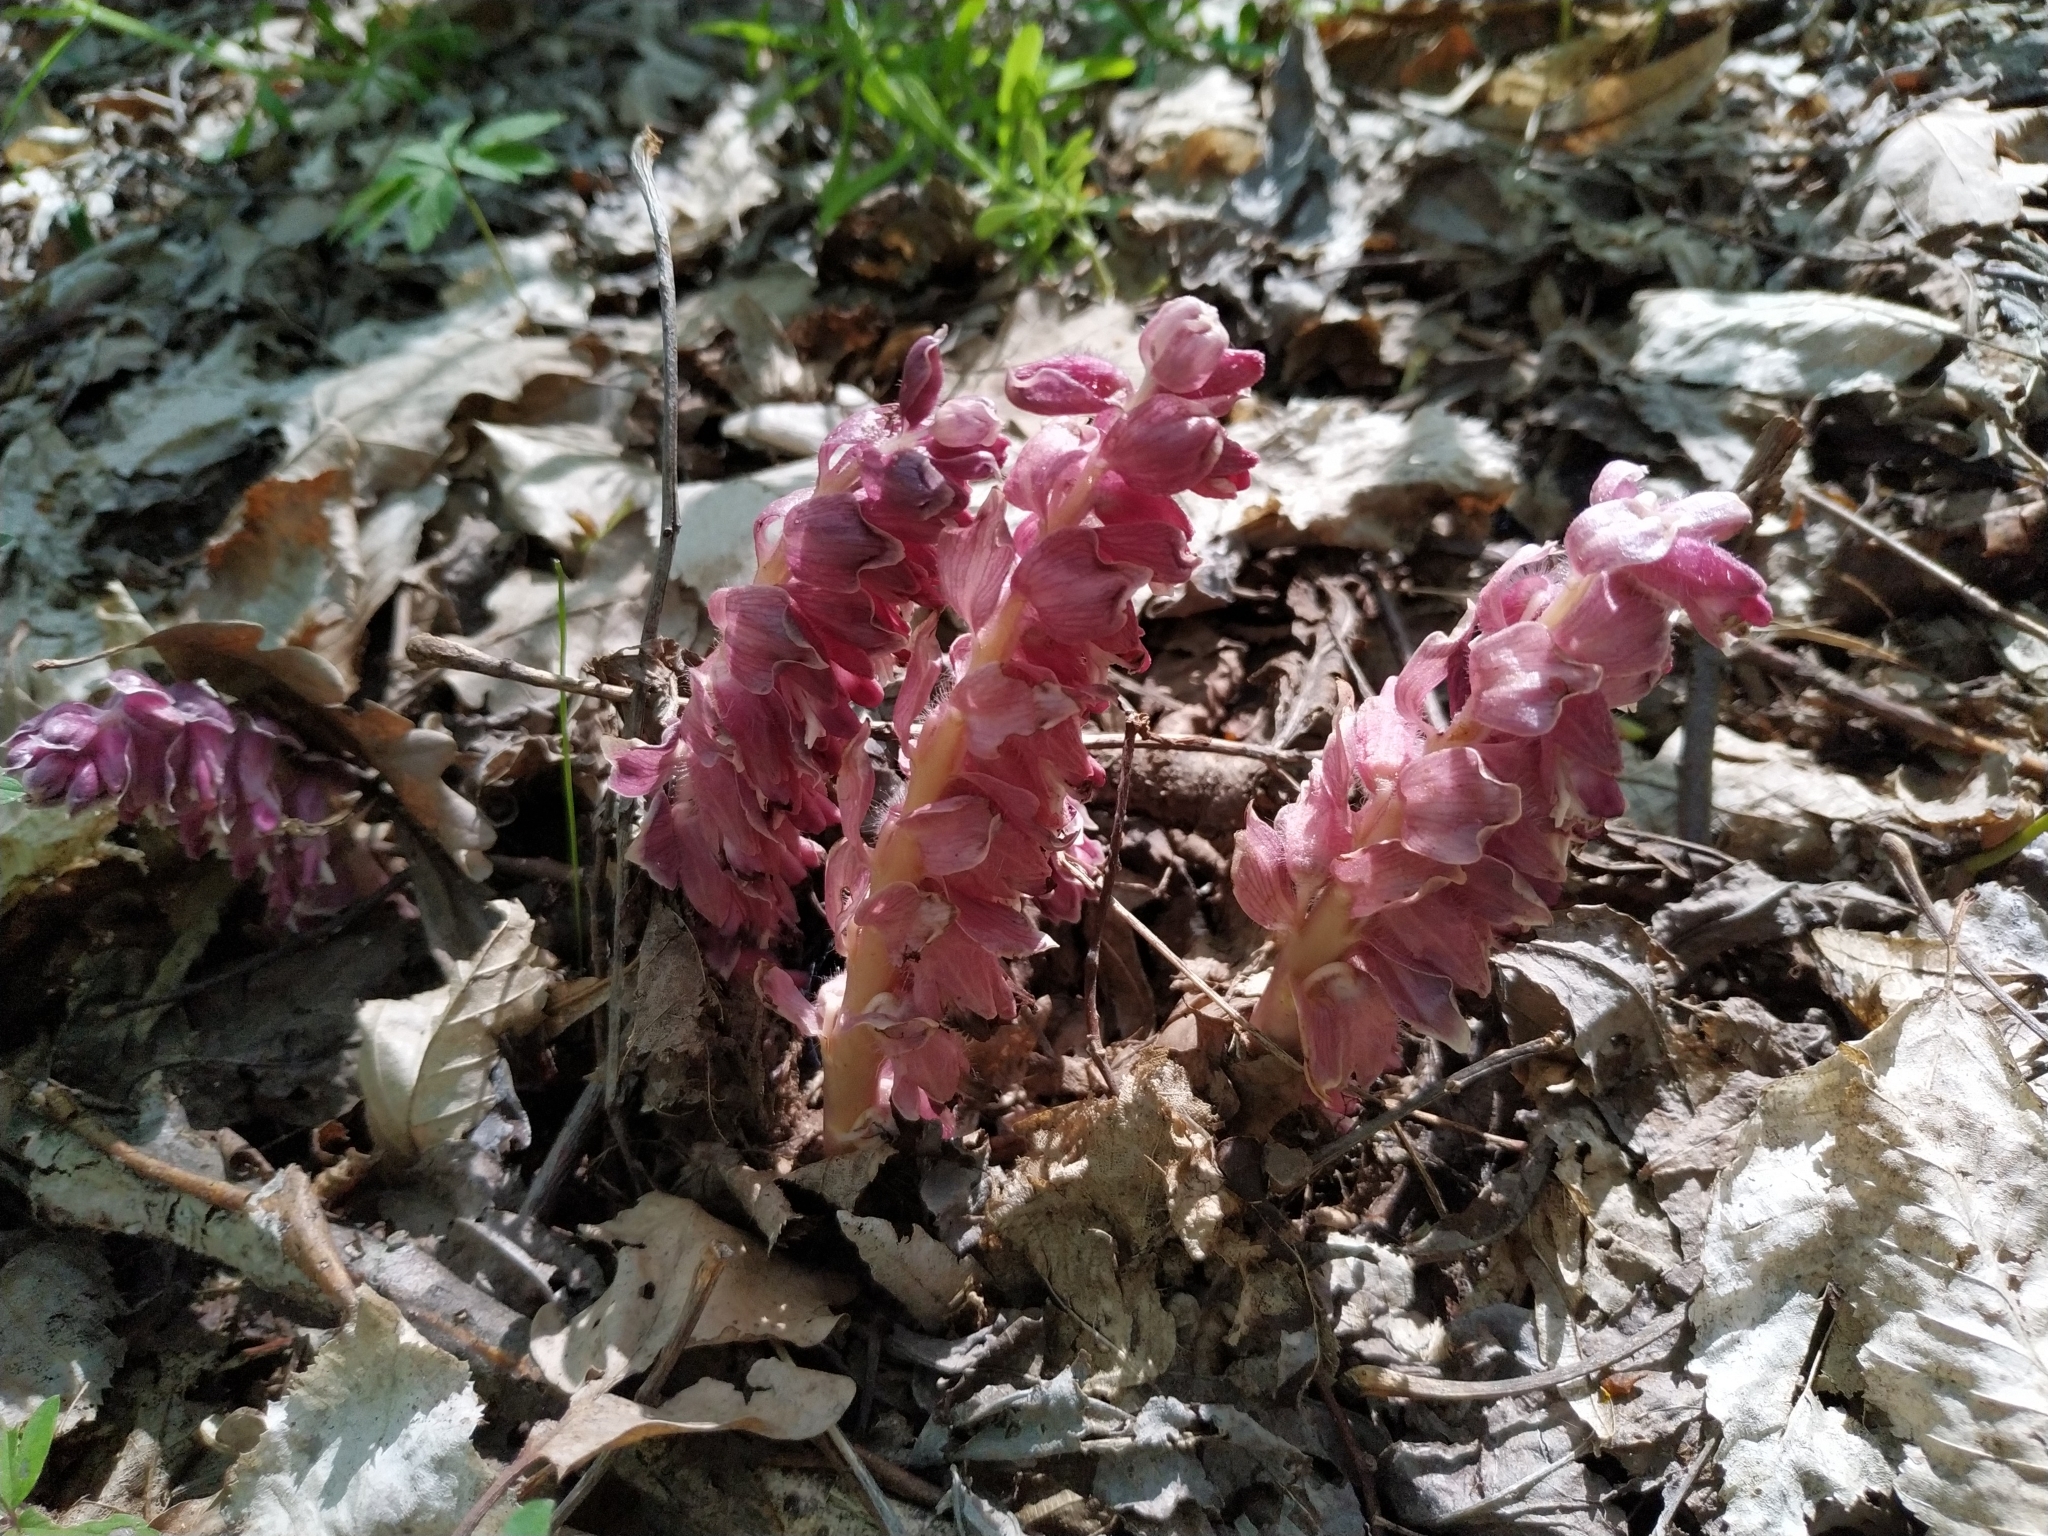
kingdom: Plantae
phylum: Tracheophyta
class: Magnoliopsida
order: Lamiales
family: Orobanchaceae
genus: Lathraea
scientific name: Lathraea squamaria
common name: Toothwort
